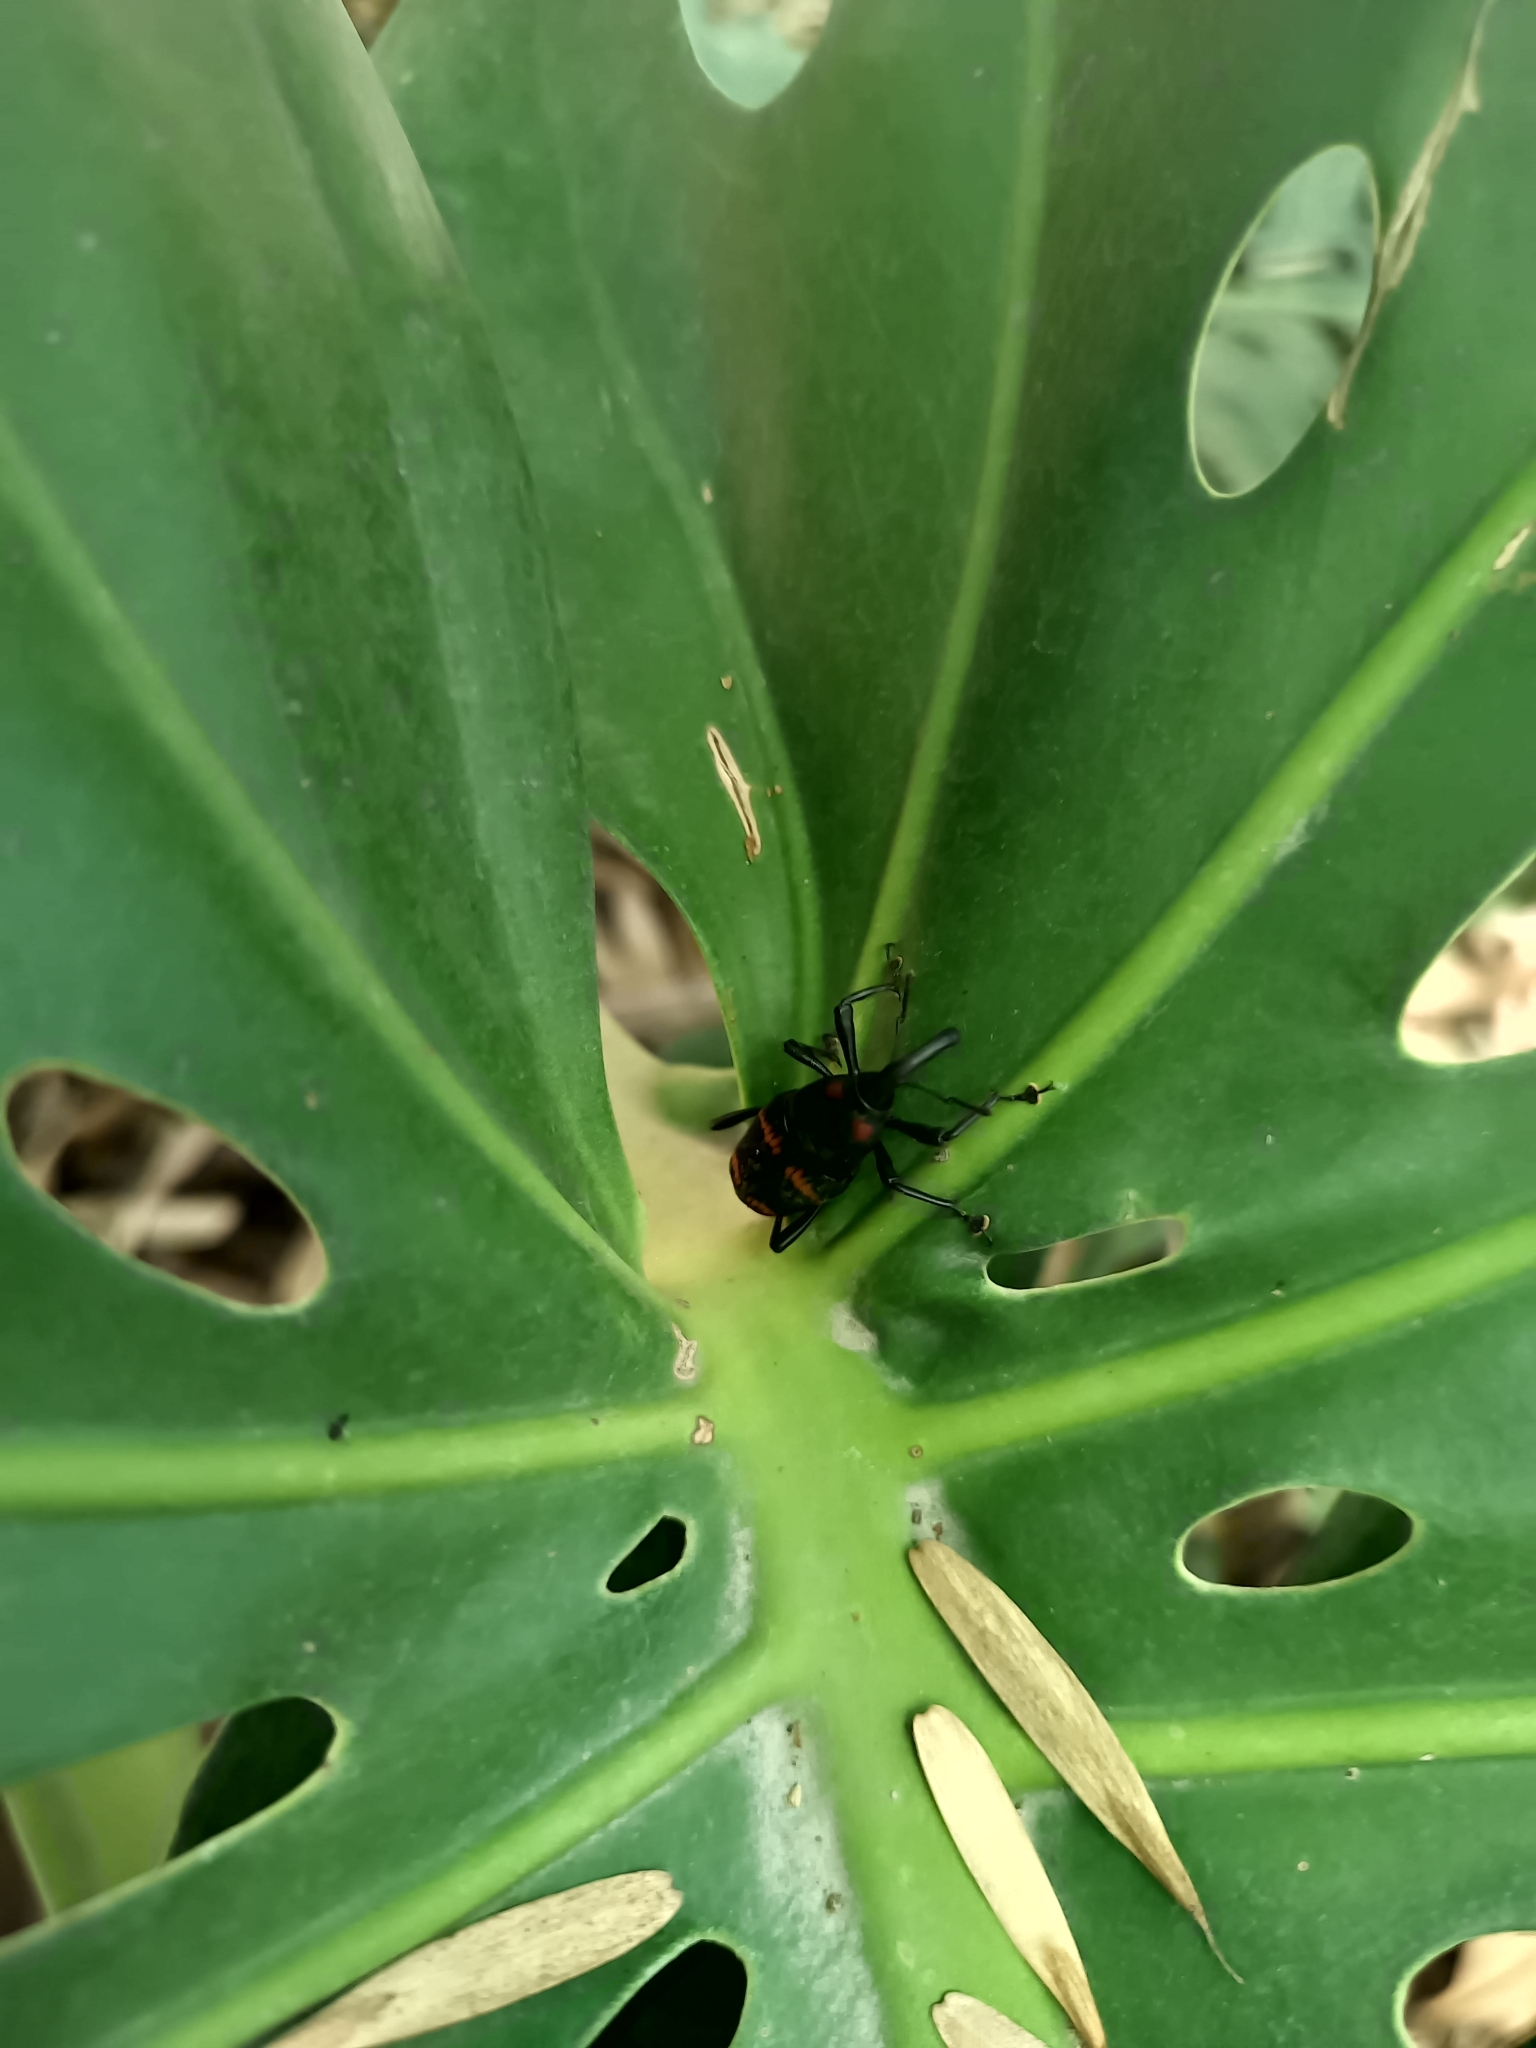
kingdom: Animalia
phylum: Arthropoda
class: Insecta
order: Coleoptera
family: Dryophthoridae
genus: Cactophagus
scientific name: Cactophagus spinolae
